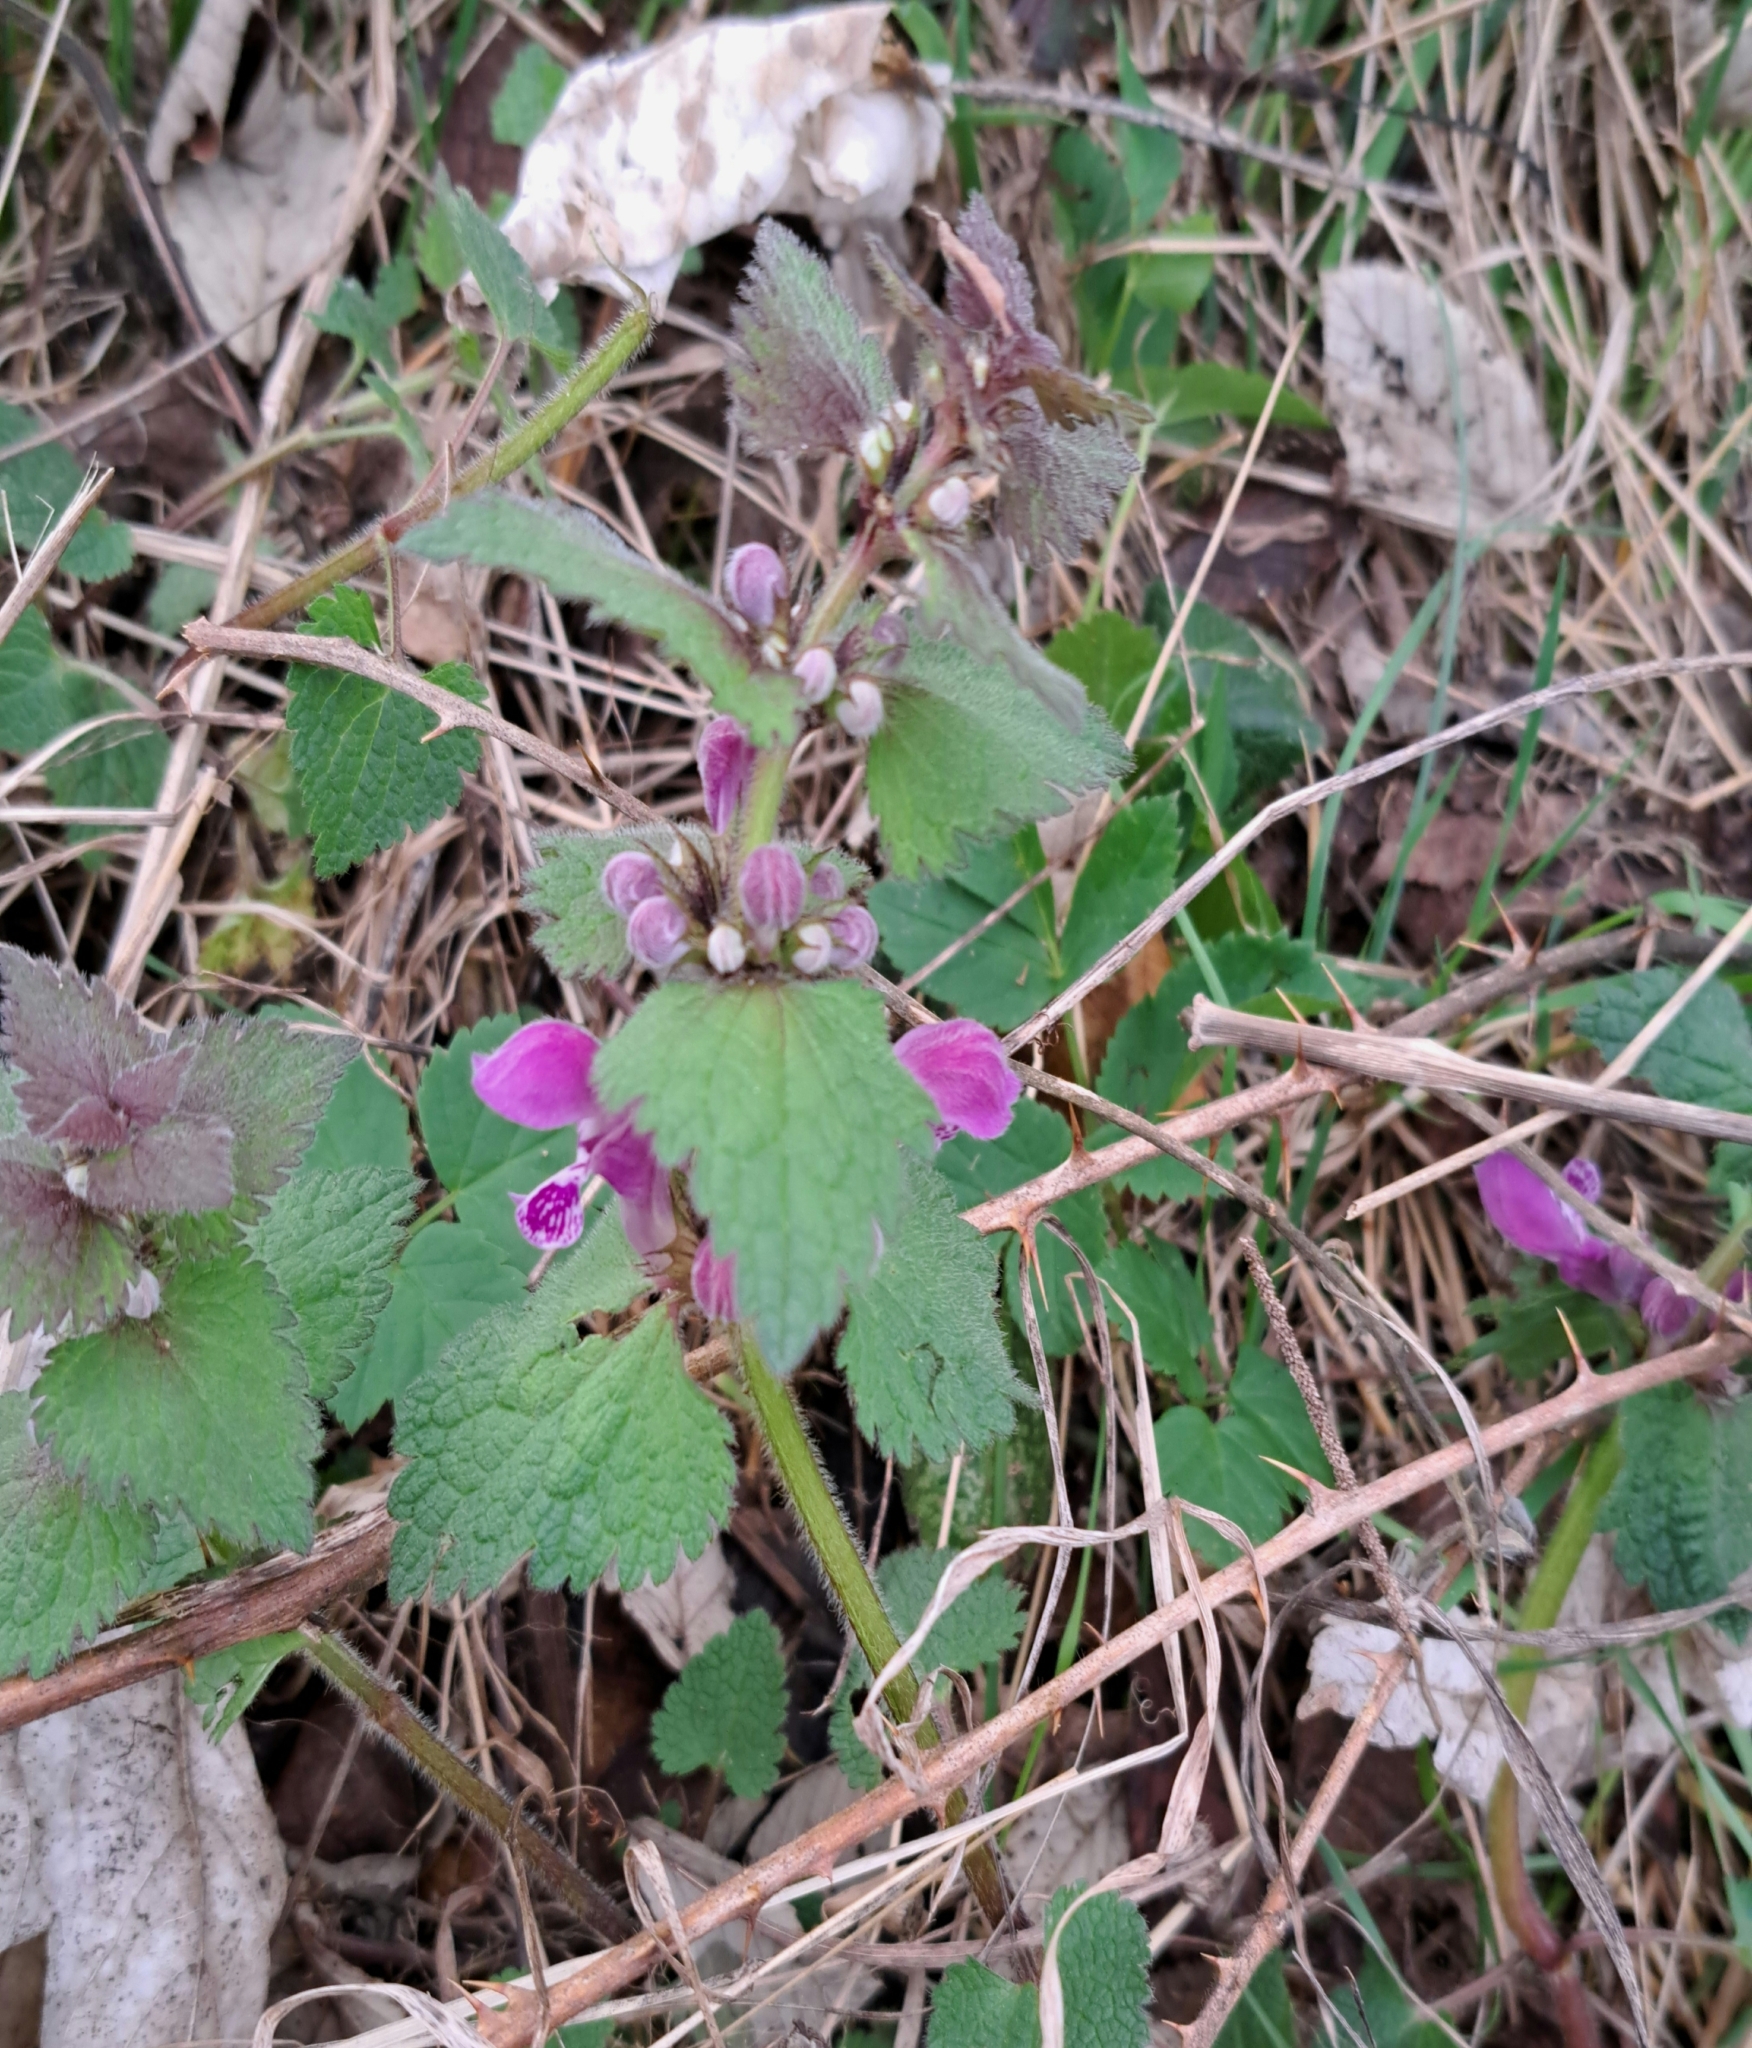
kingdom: Plantae
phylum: Tracheophyta
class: Magnoliopsida
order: Lamiales
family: Lamiaceae
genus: Lamium
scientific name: Lamium maculatum
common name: Spotted dead-nettle
